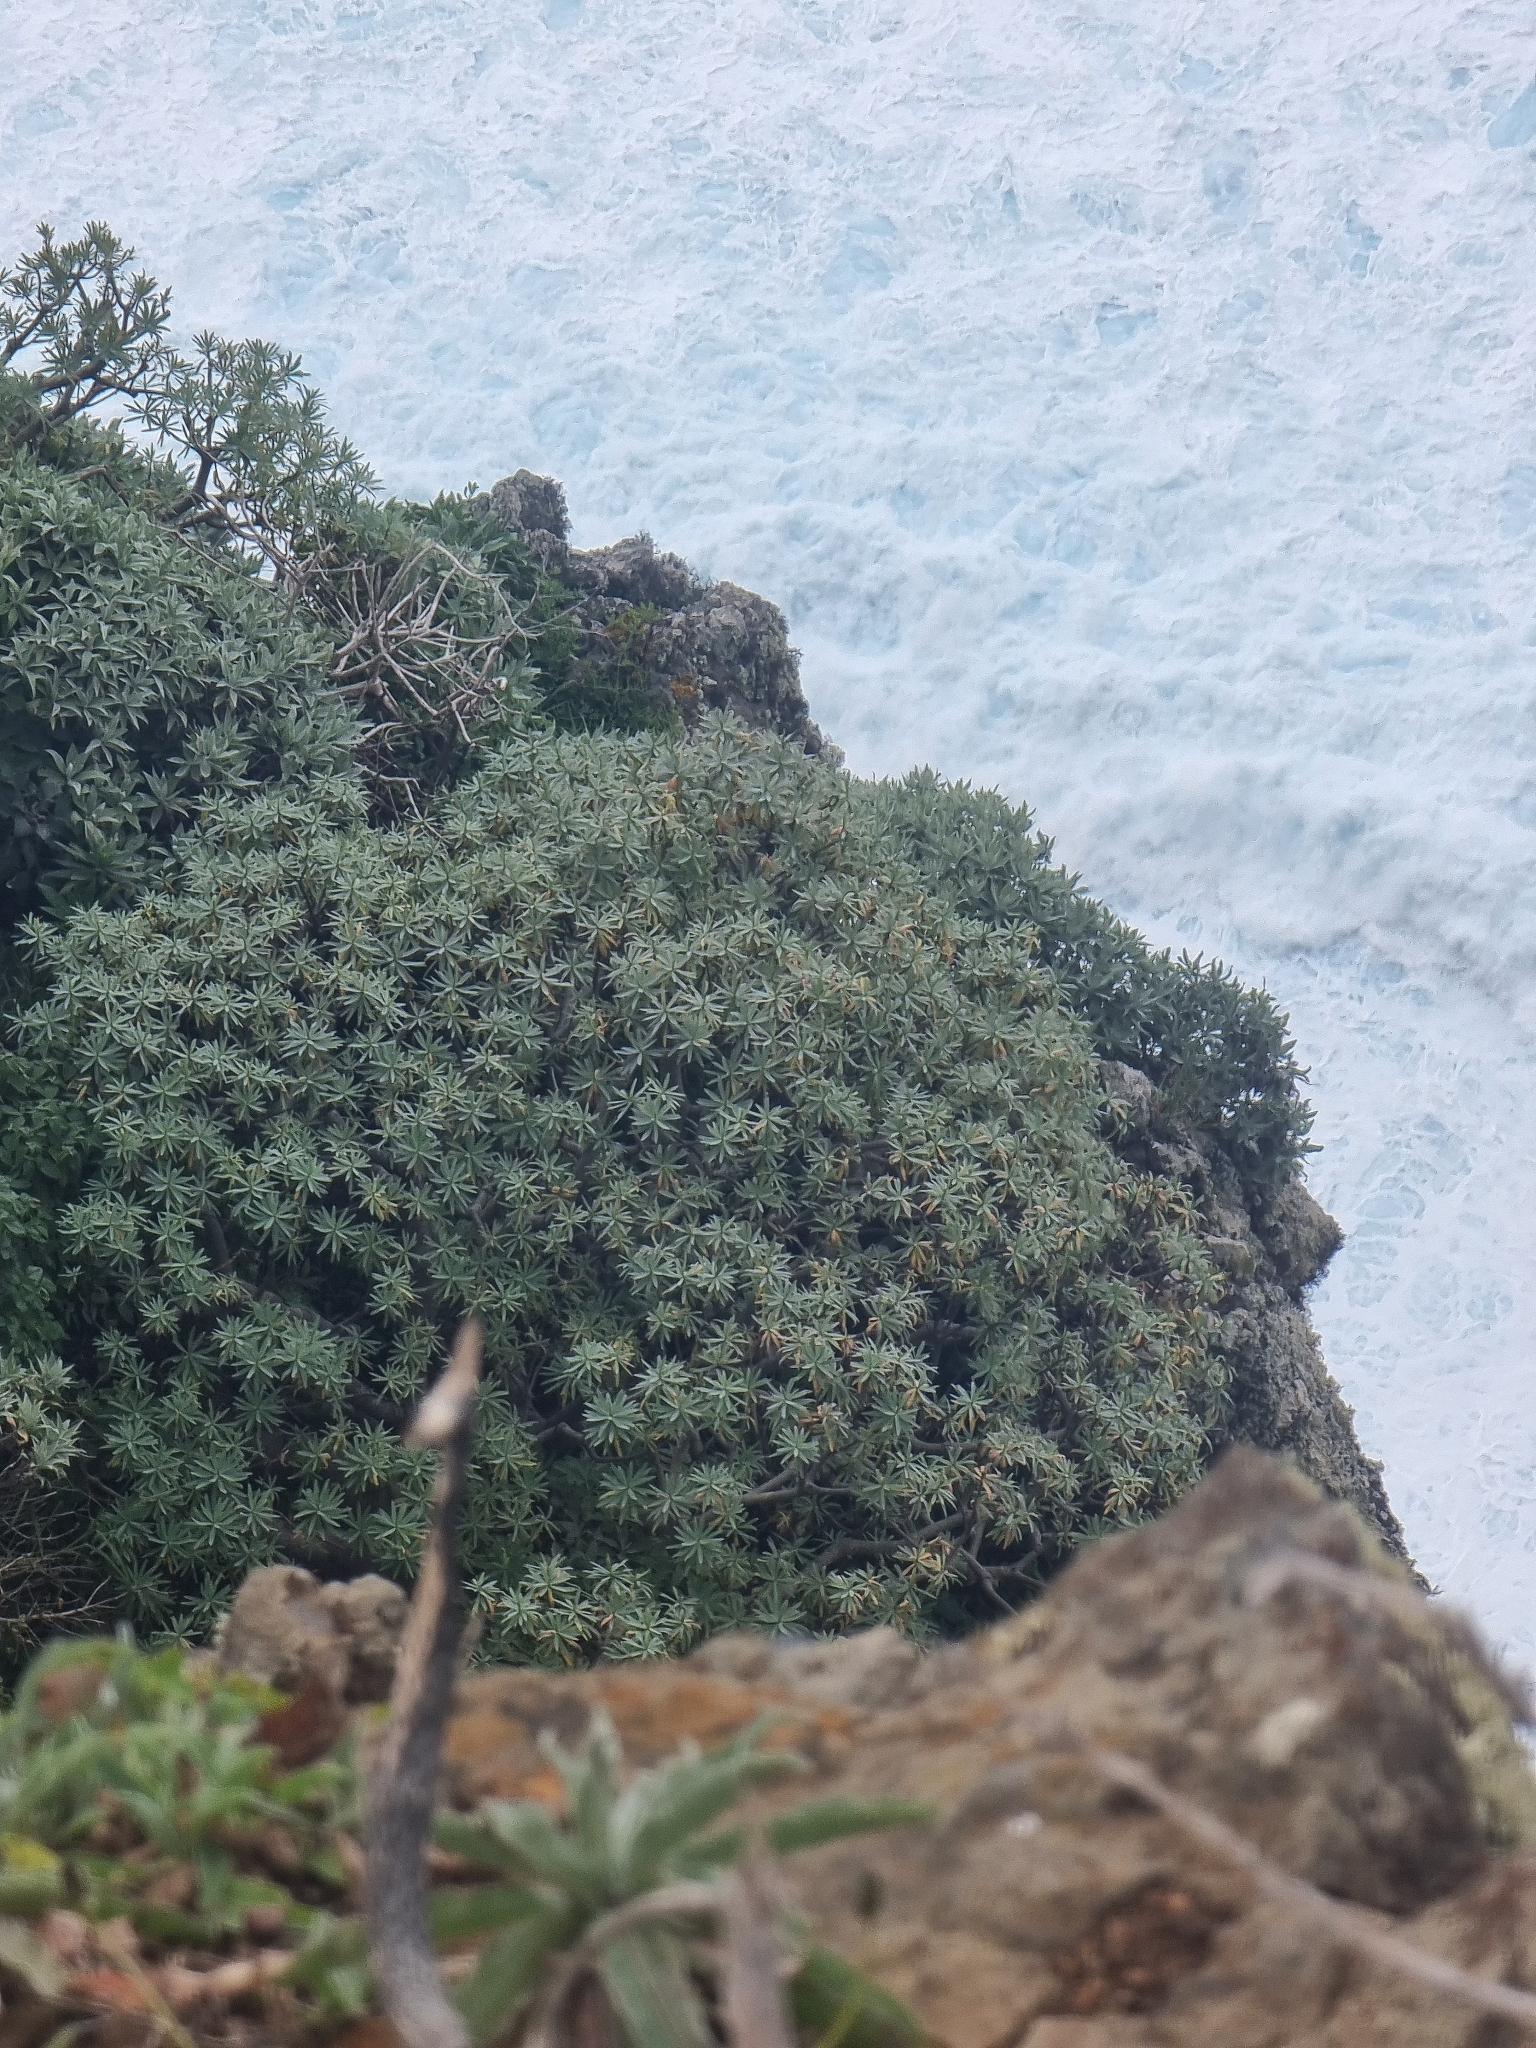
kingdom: Plantae
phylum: Tracheophyta
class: Magnoliopsida
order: Malpighiales
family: Euphorbiaceae
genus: Euphorbia
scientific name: Euphorbia piscatoria
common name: Fish-stunning spurge
